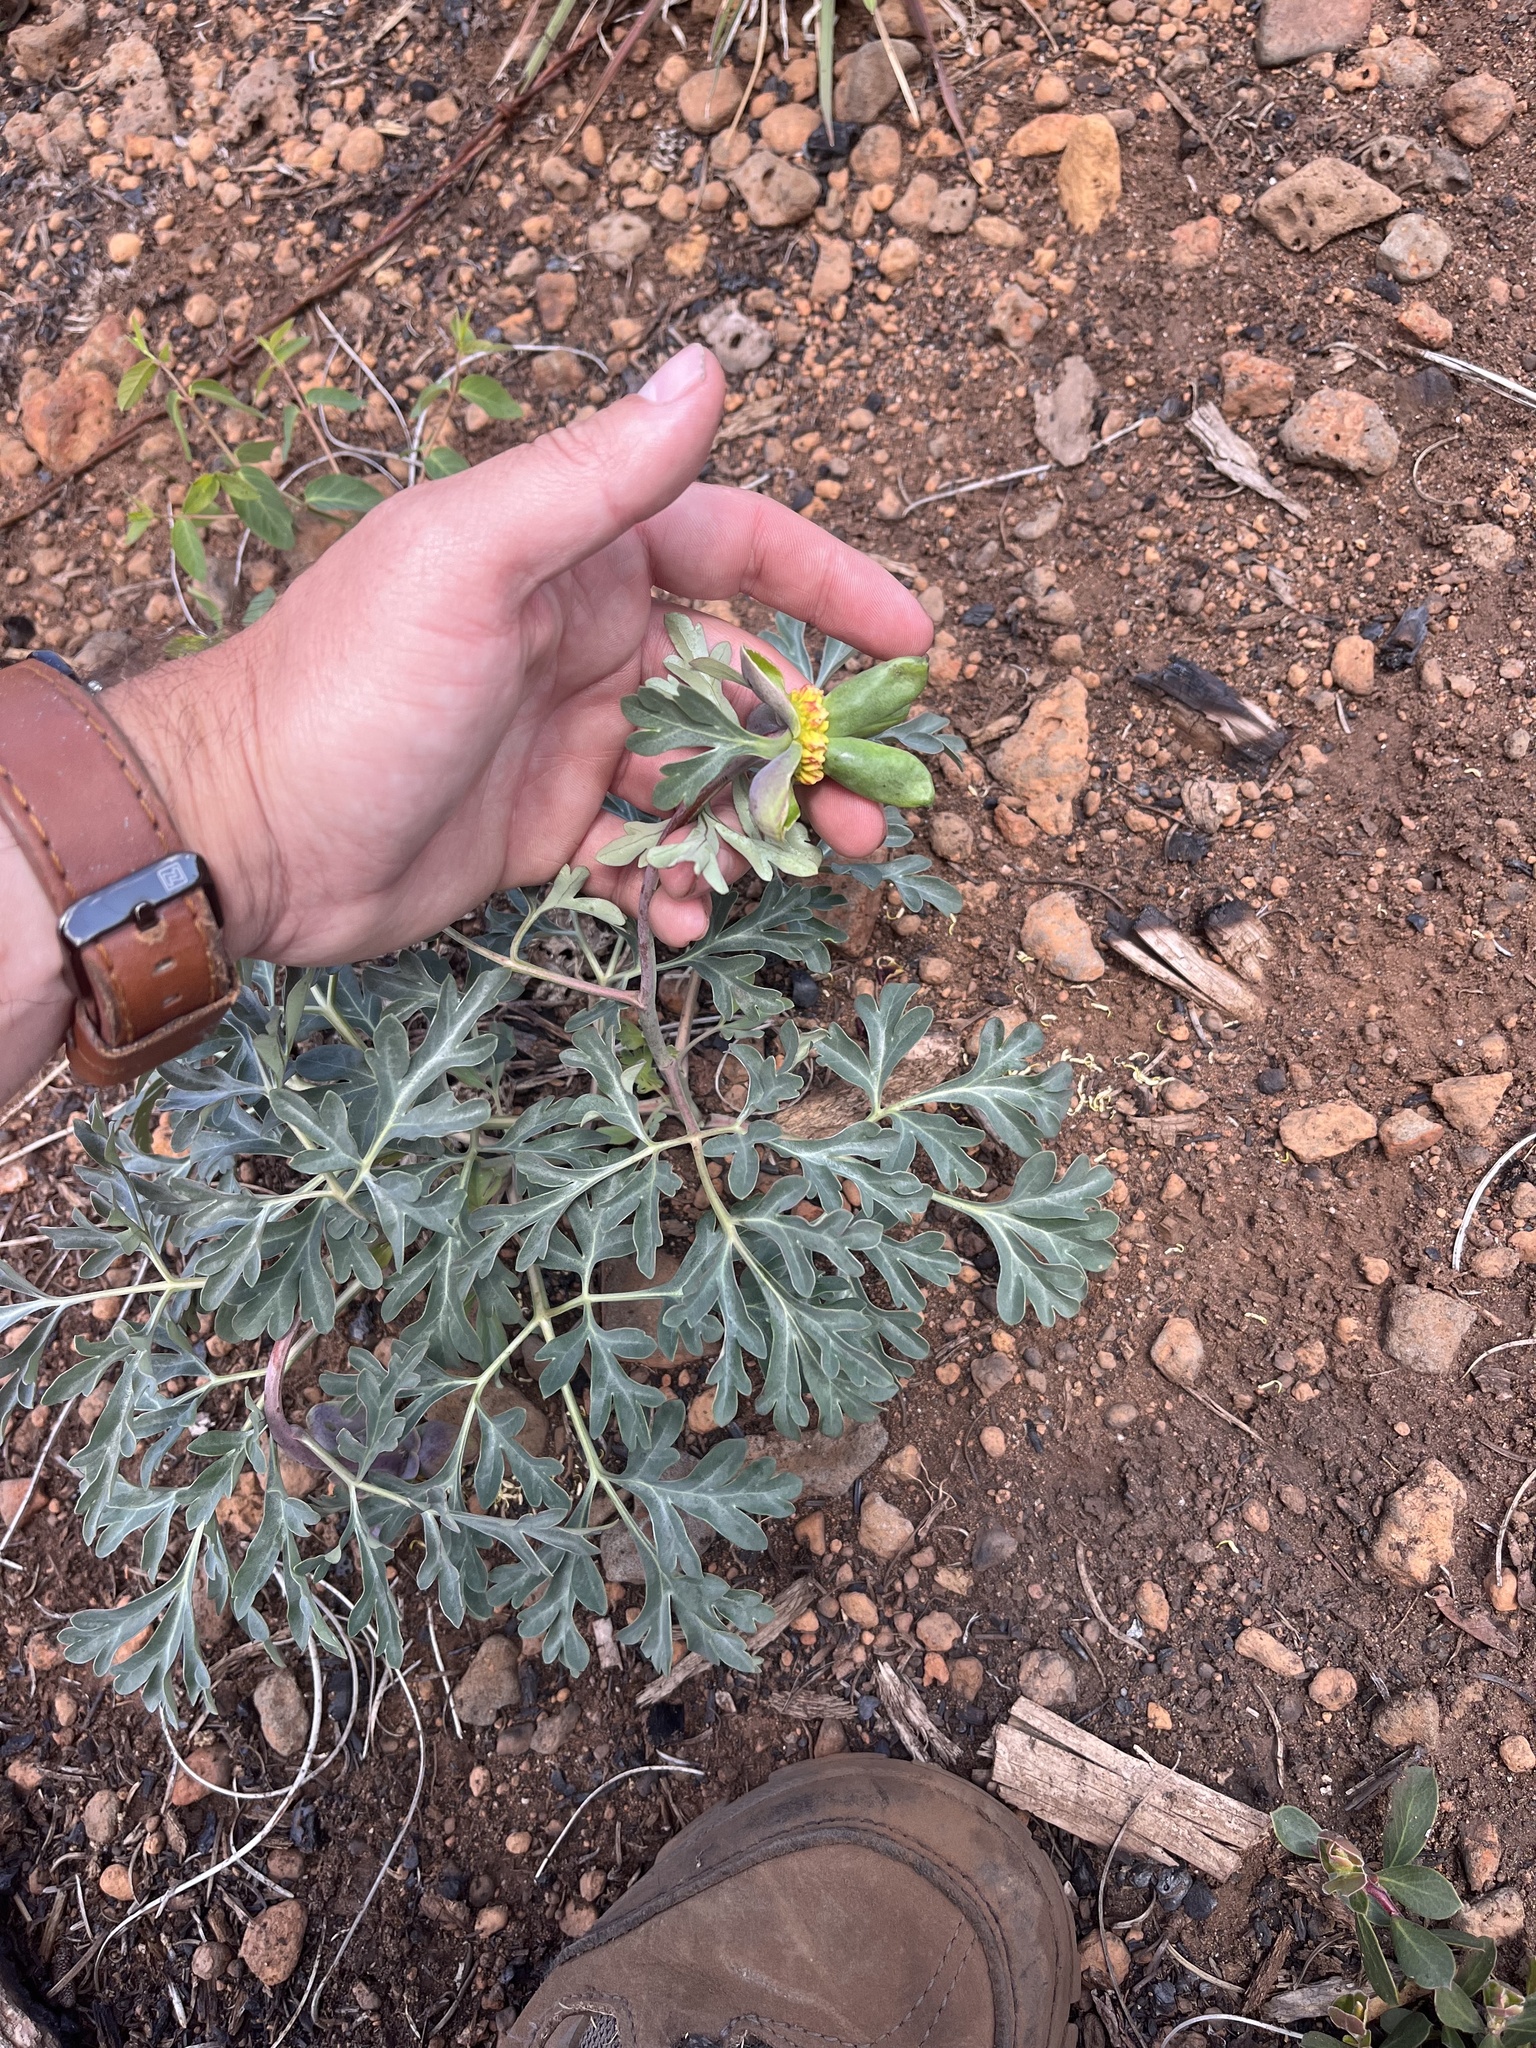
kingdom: Plantae
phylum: Tracheophyta
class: Magnoliopsida
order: Saxifragales
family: Paeoniaceae
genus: Paeonia
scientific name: Paeonia brownii
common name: Brown's peony
